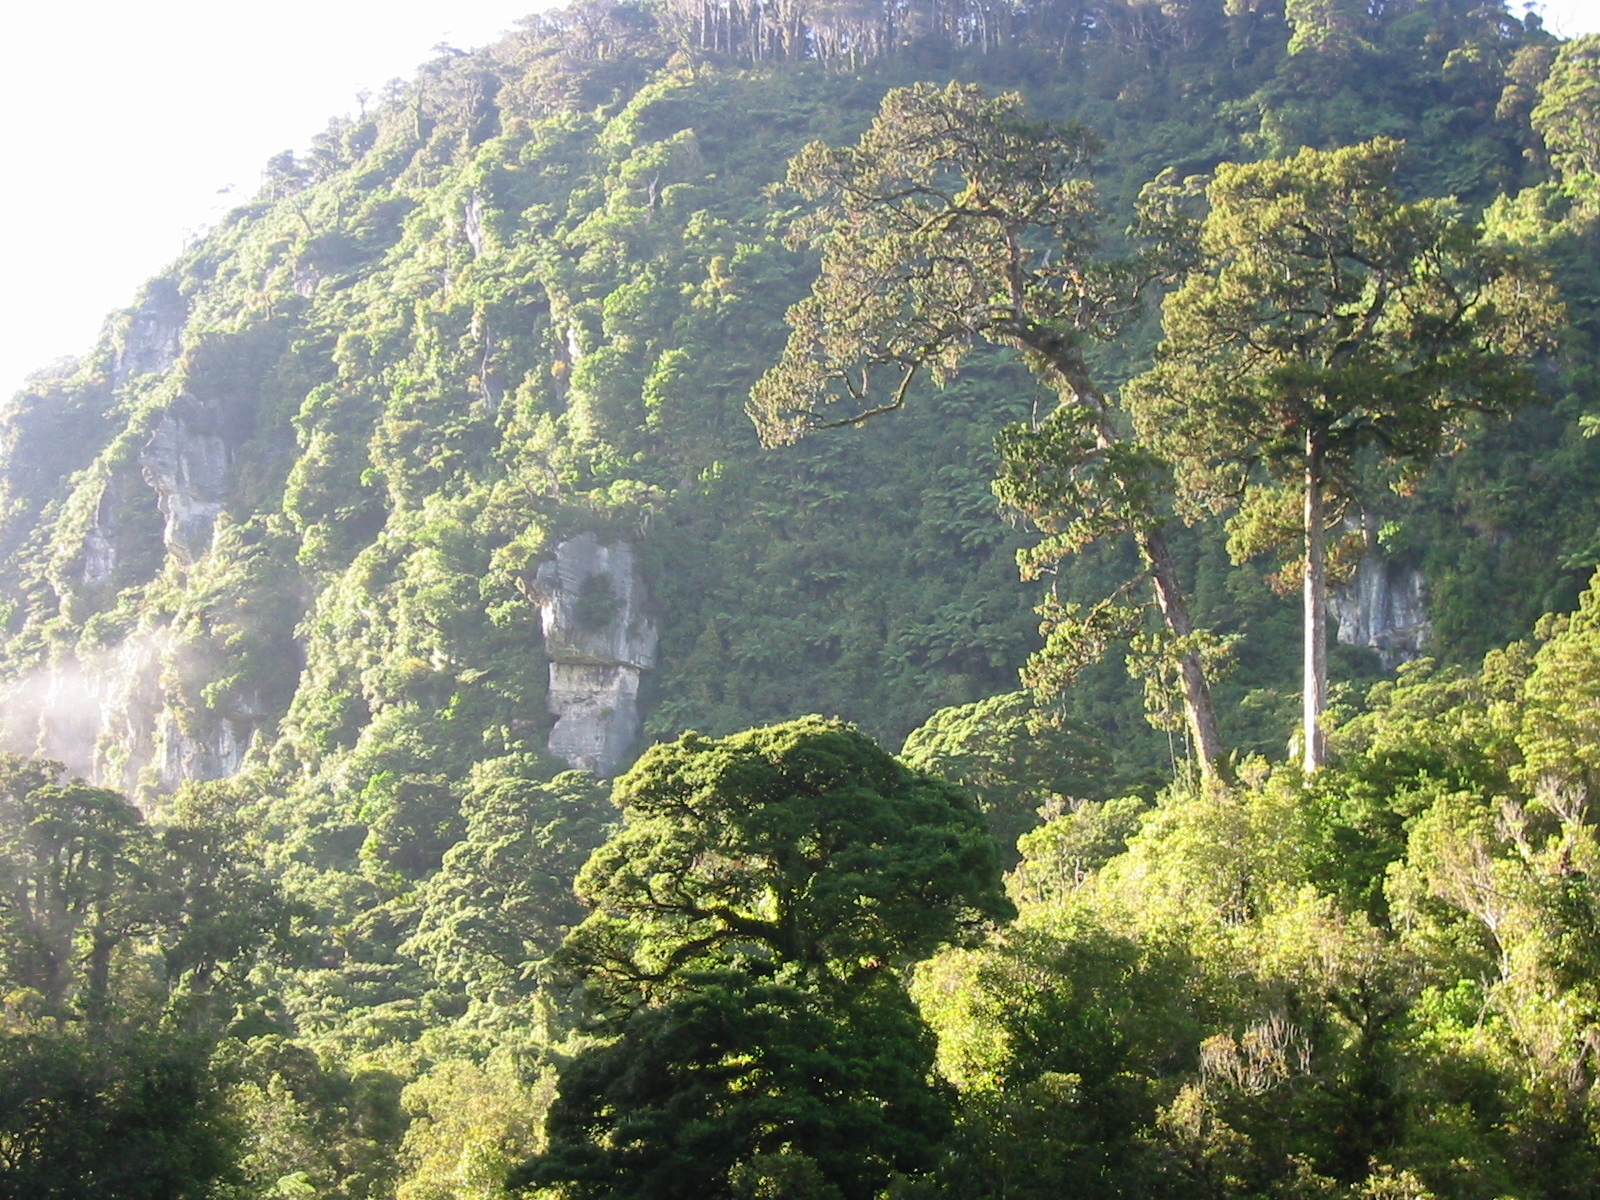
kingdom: Plantae
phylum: Tracheophyta
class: Pinopsida
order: Pinales
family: Podocarpaceae
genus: Dacrydium
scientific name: Dacrydium cupressinum
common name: Red pine
